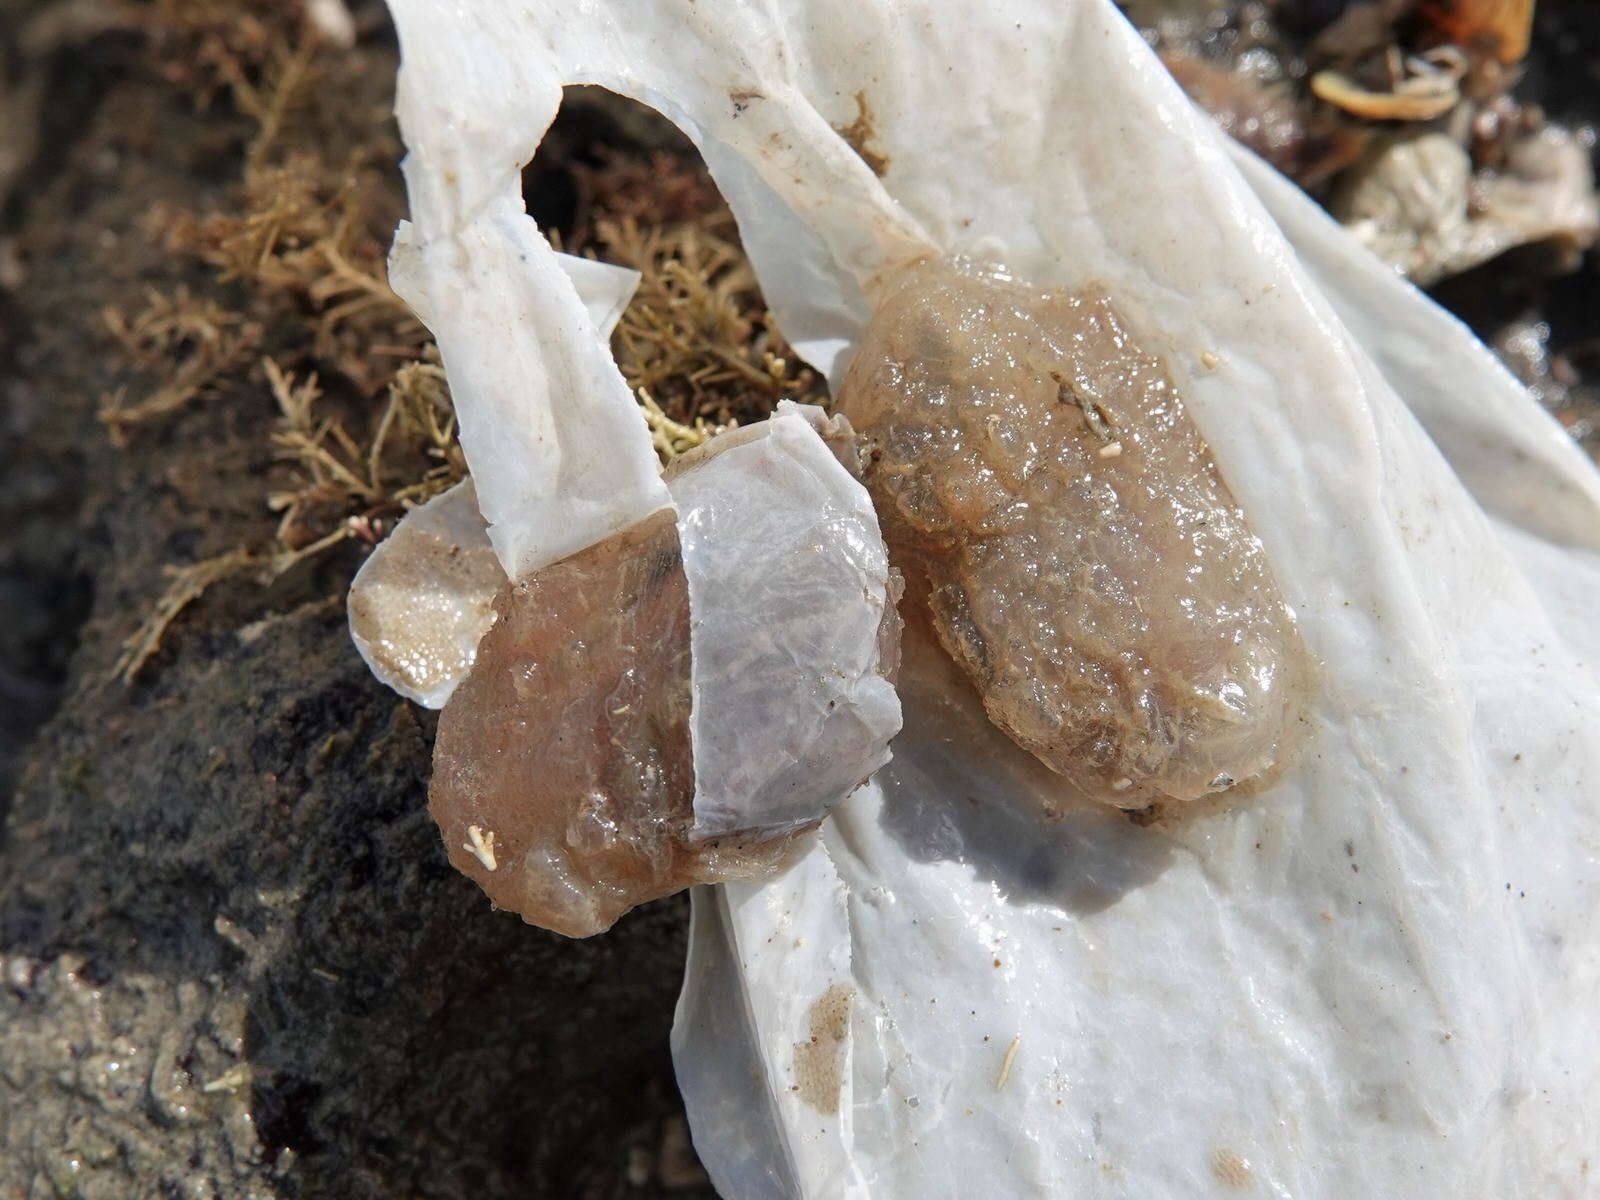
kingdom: Animalia
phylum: Chordata
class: Ascidiacea
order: Phlebobranchia
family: Ascidiidae
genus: Ascidiella
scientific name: Ascidiella aspersa
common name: Dirty sea-squirt
